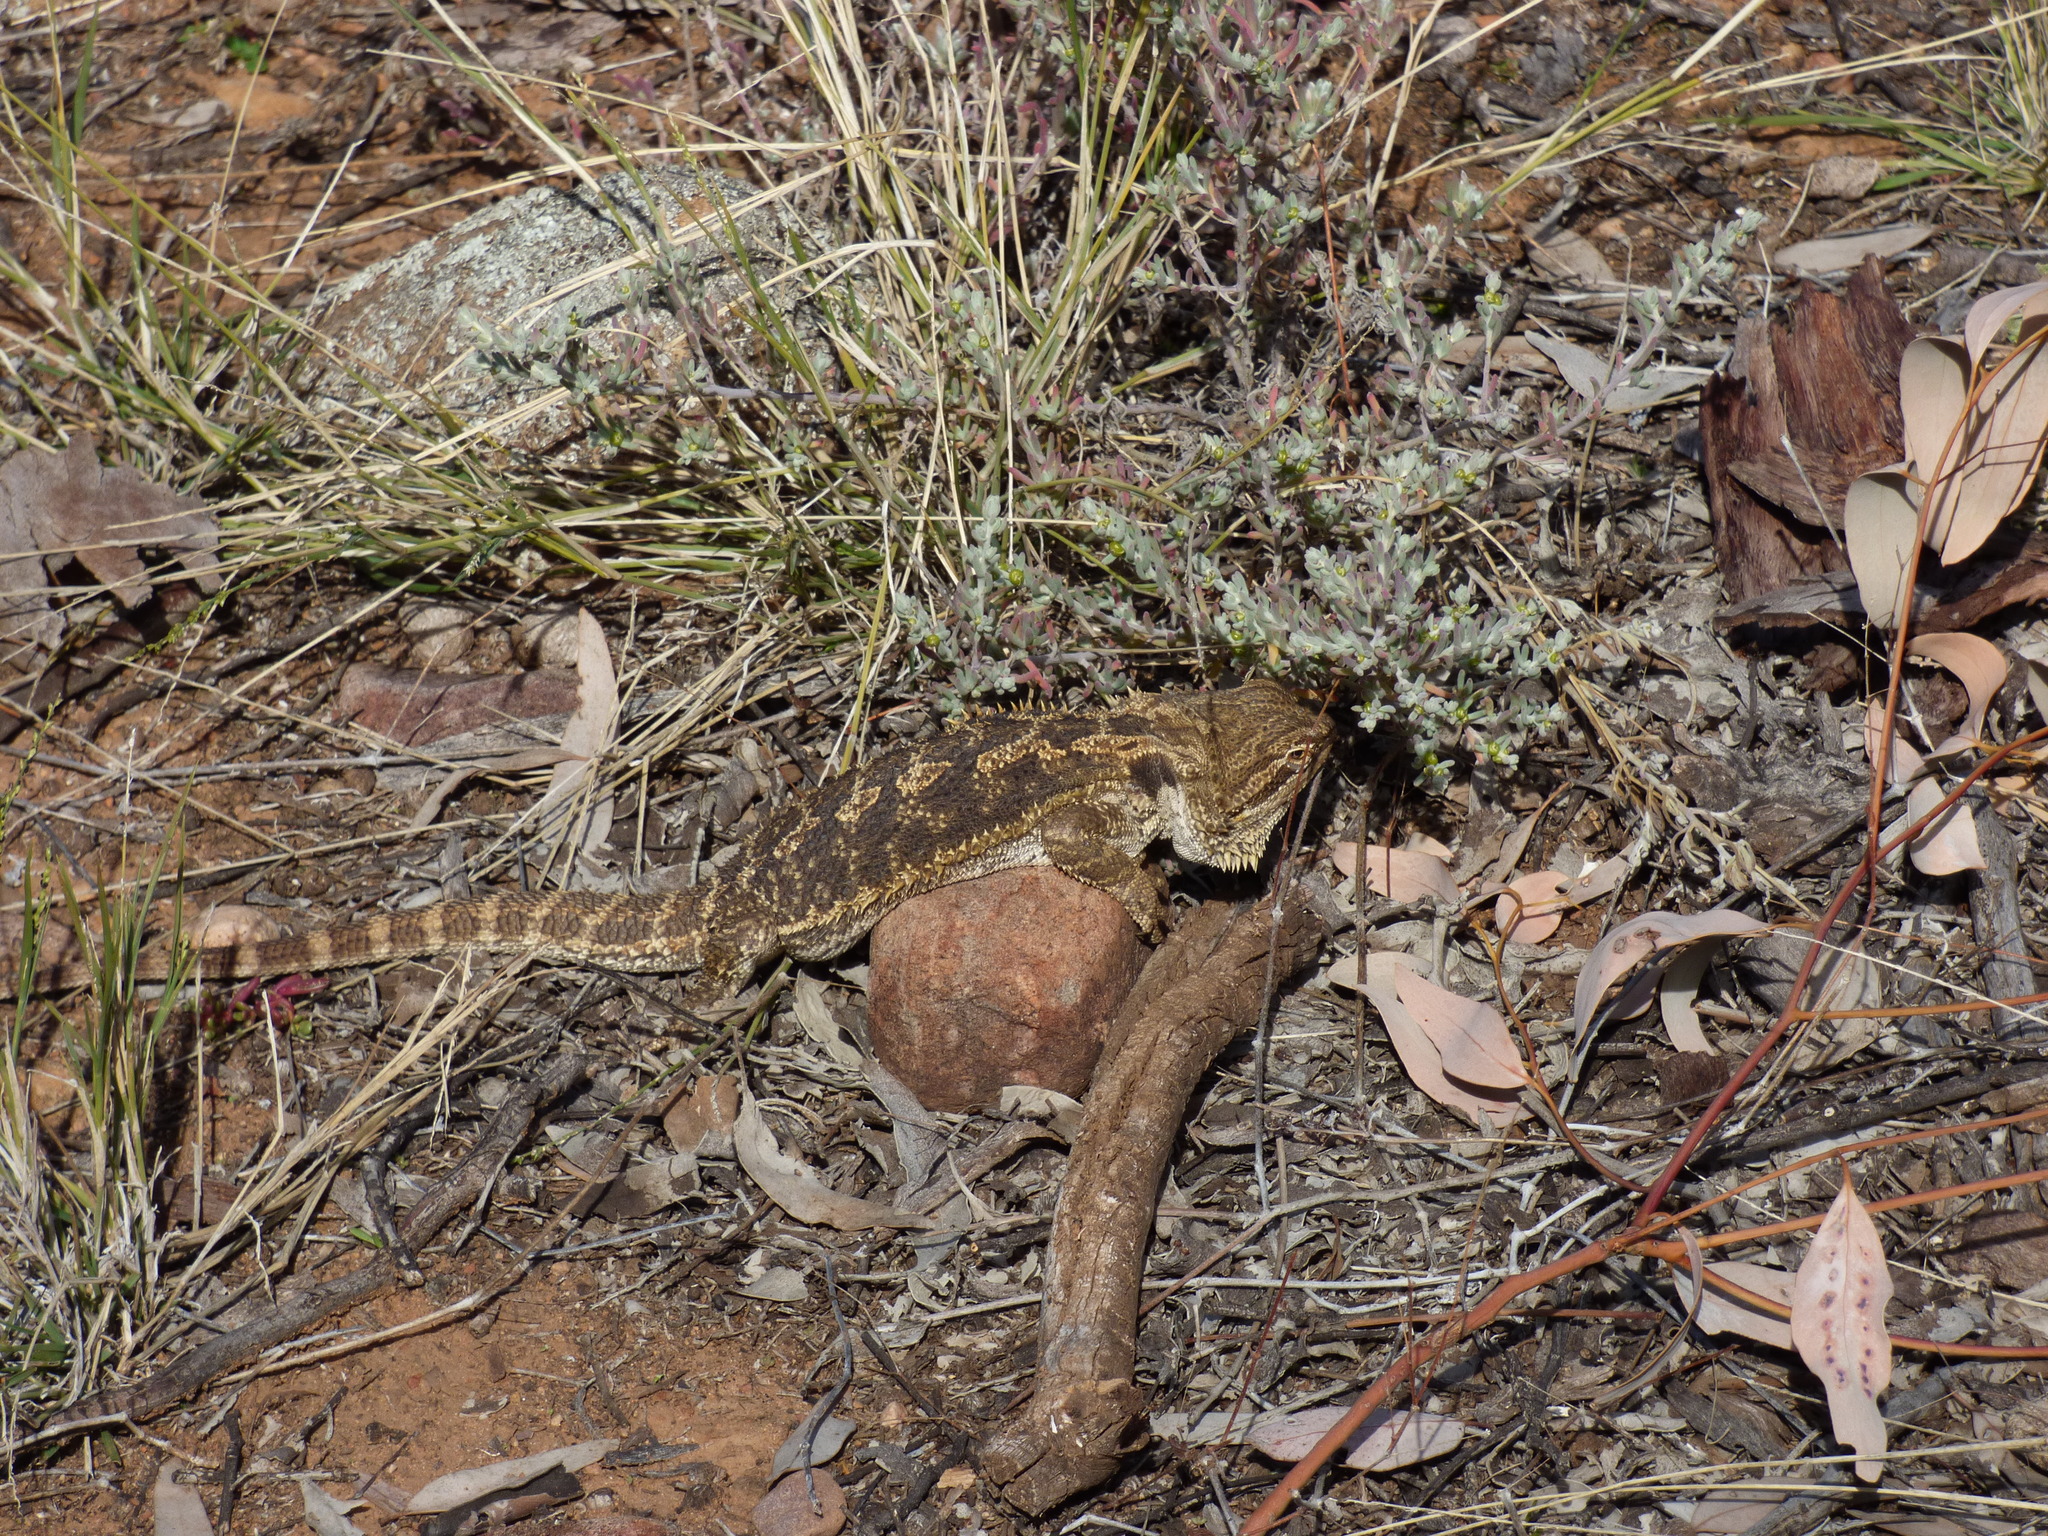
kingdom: Animalia
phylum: Chordata
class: Squamata
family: Agamidae
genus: Pogona
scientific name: Pogona vitticeps
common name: Central bearded dragon
